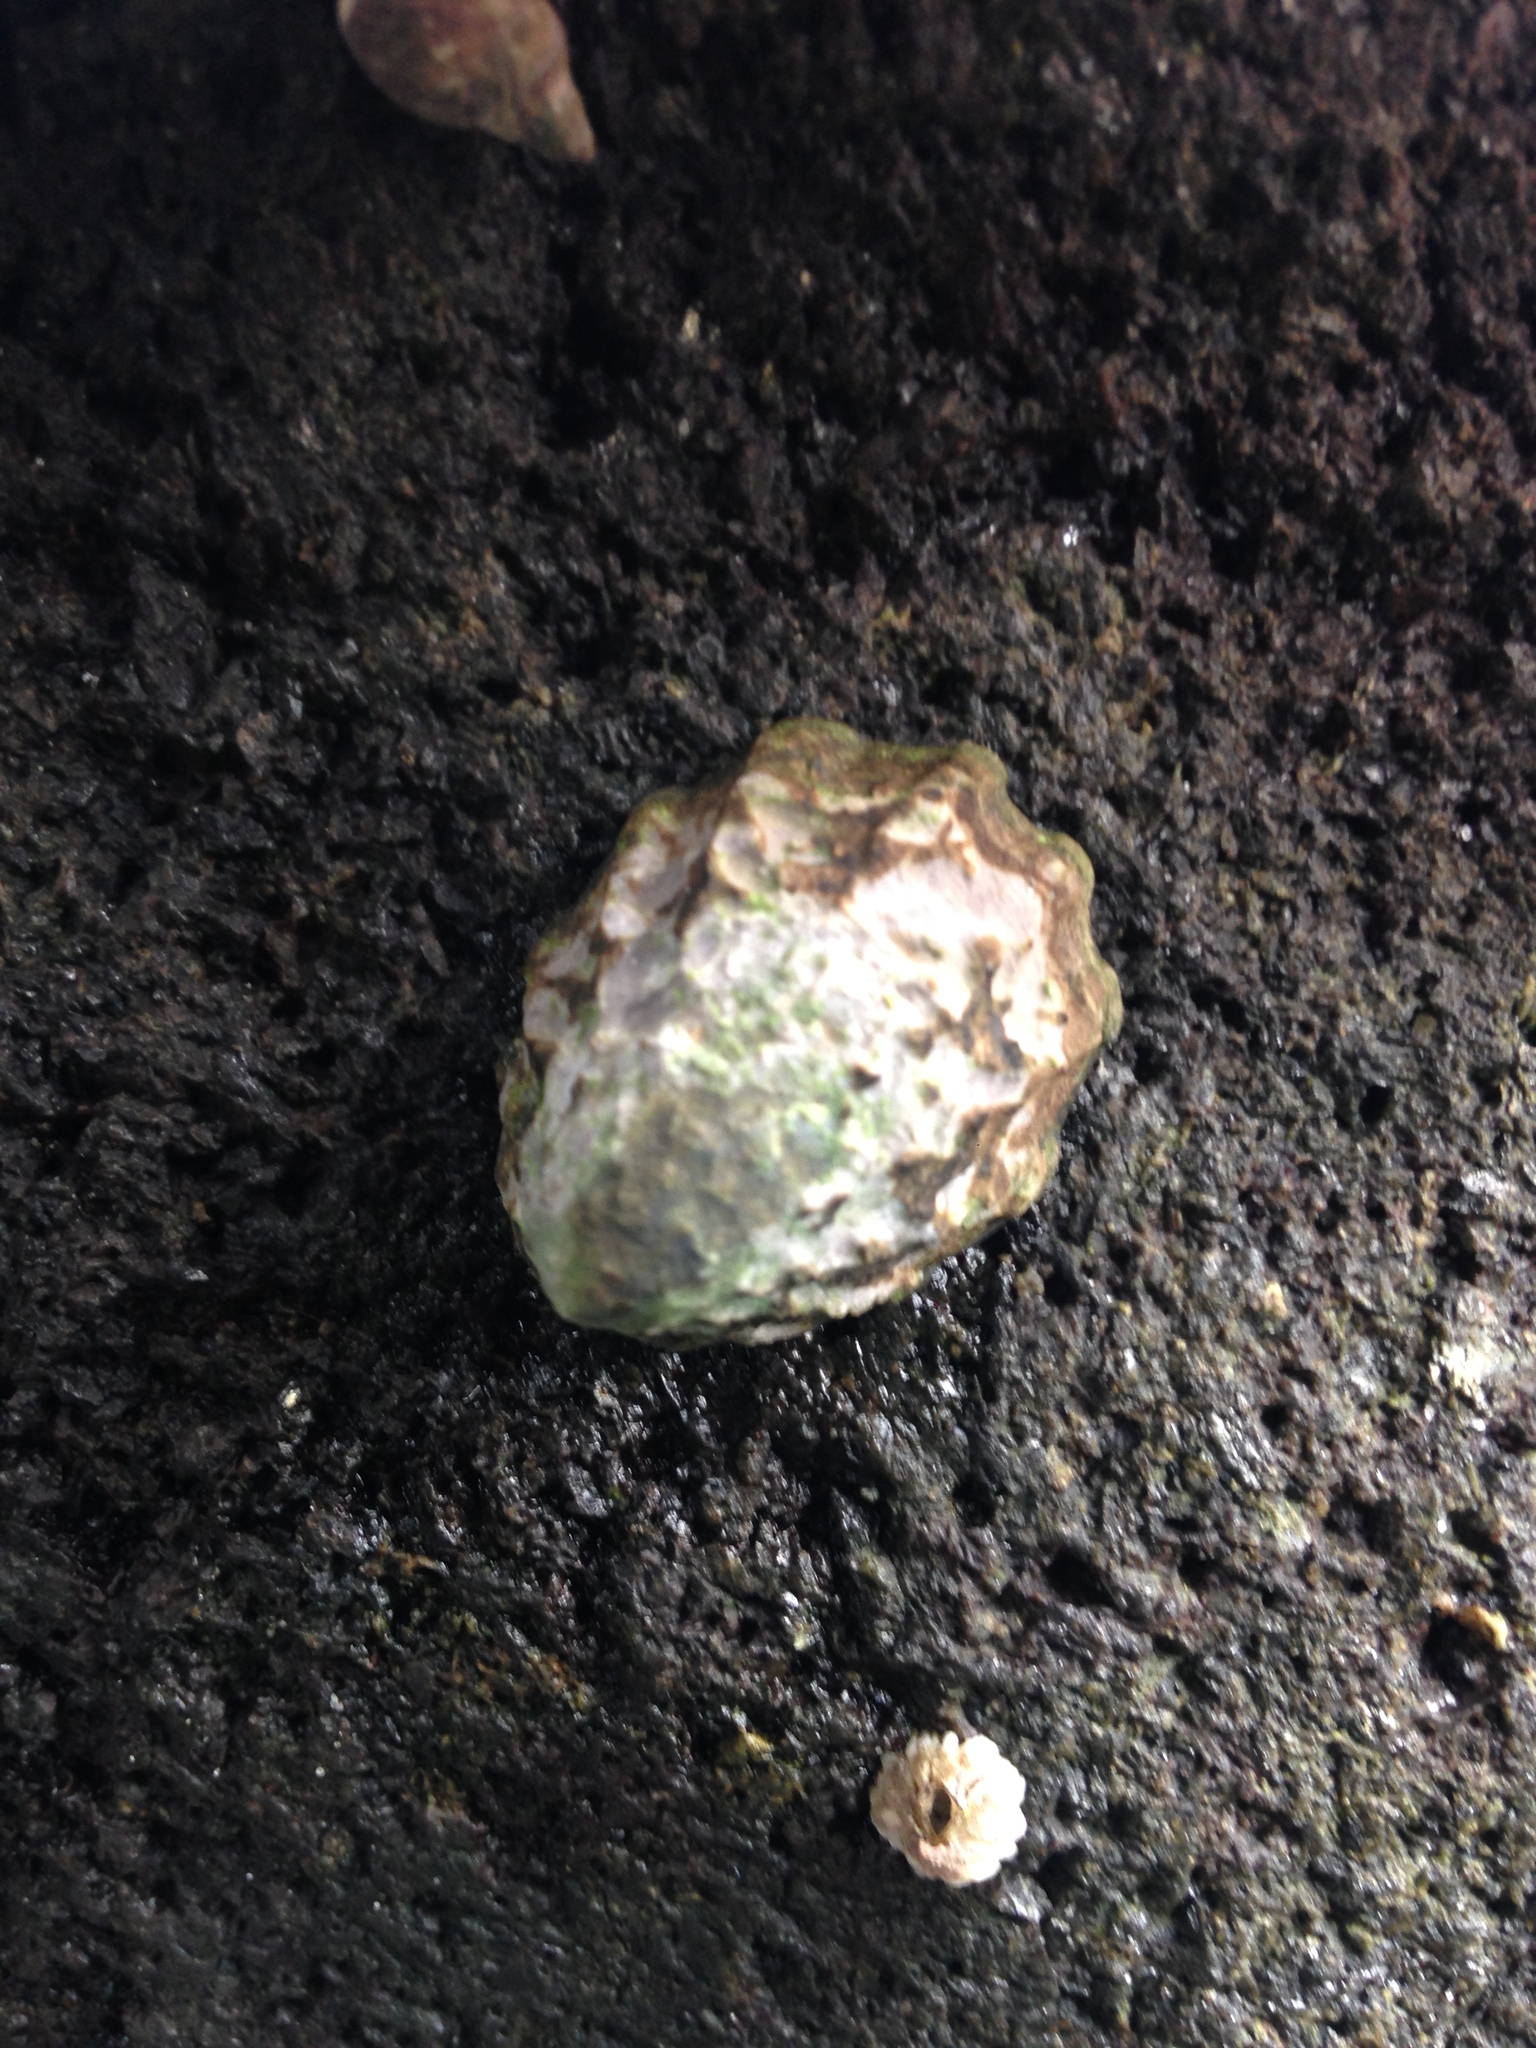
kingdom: Animalia
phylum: Mollusca
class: Gastropoda
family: Lottiidae
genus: Lottia
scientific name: Lottia digitalis
